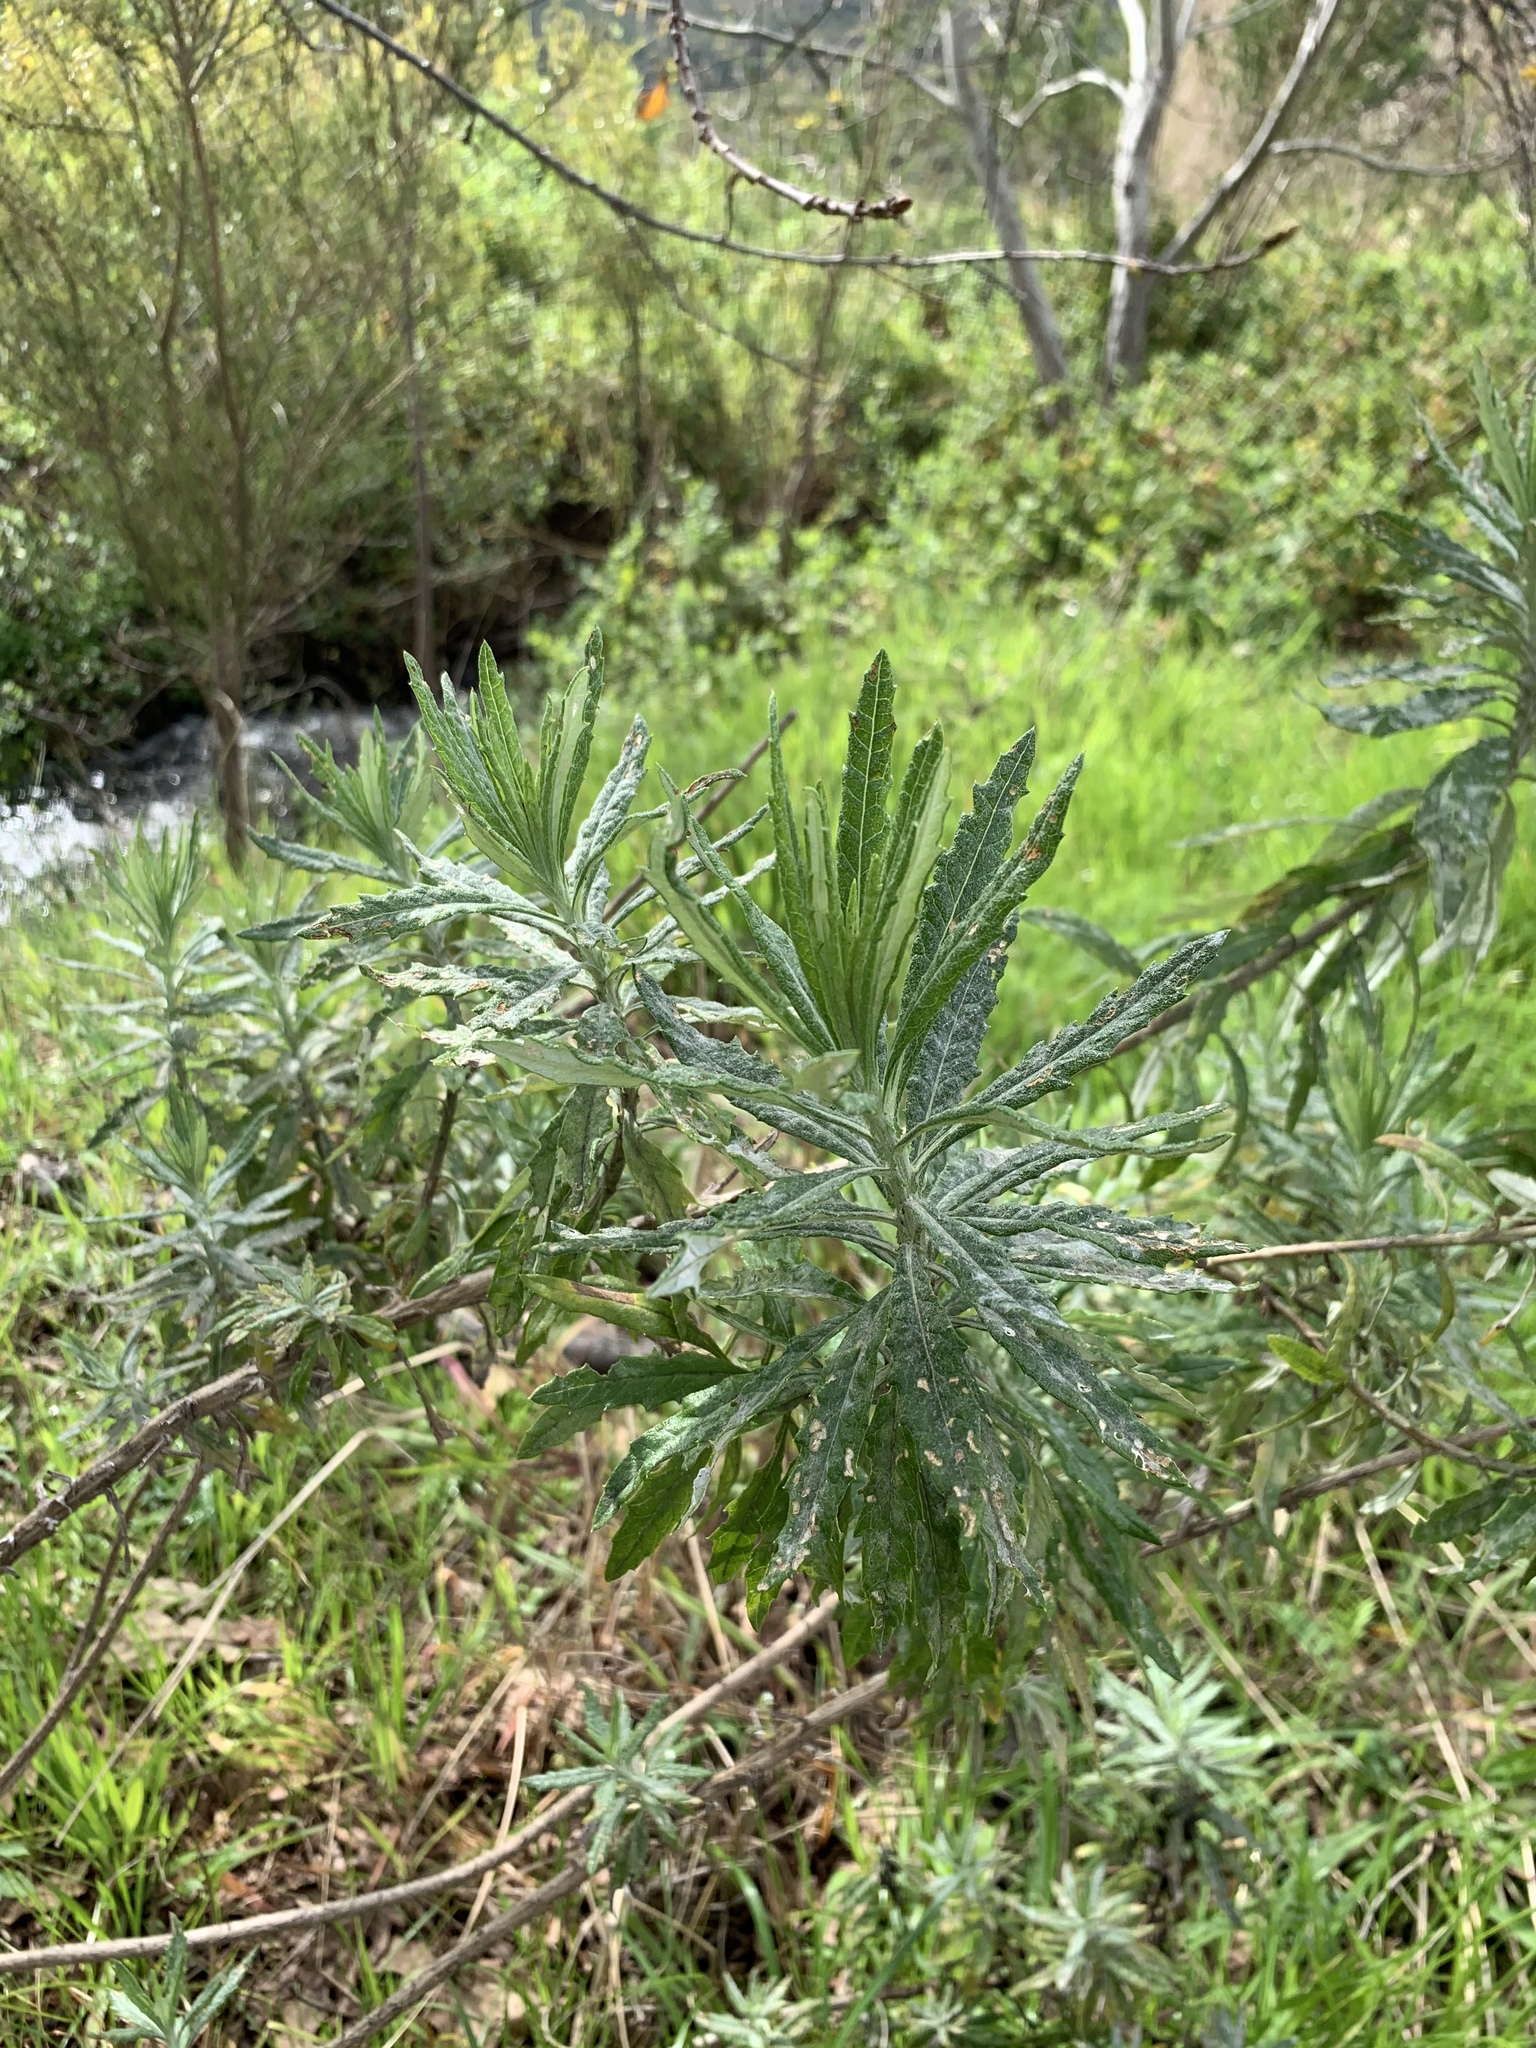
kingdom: Plantae
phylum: Tracheophyta
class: Magnoliopsida
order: Asterales
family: Asteraceae
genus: Senecio
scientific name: Senecio pterophorus
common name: Shoddy ragwort
